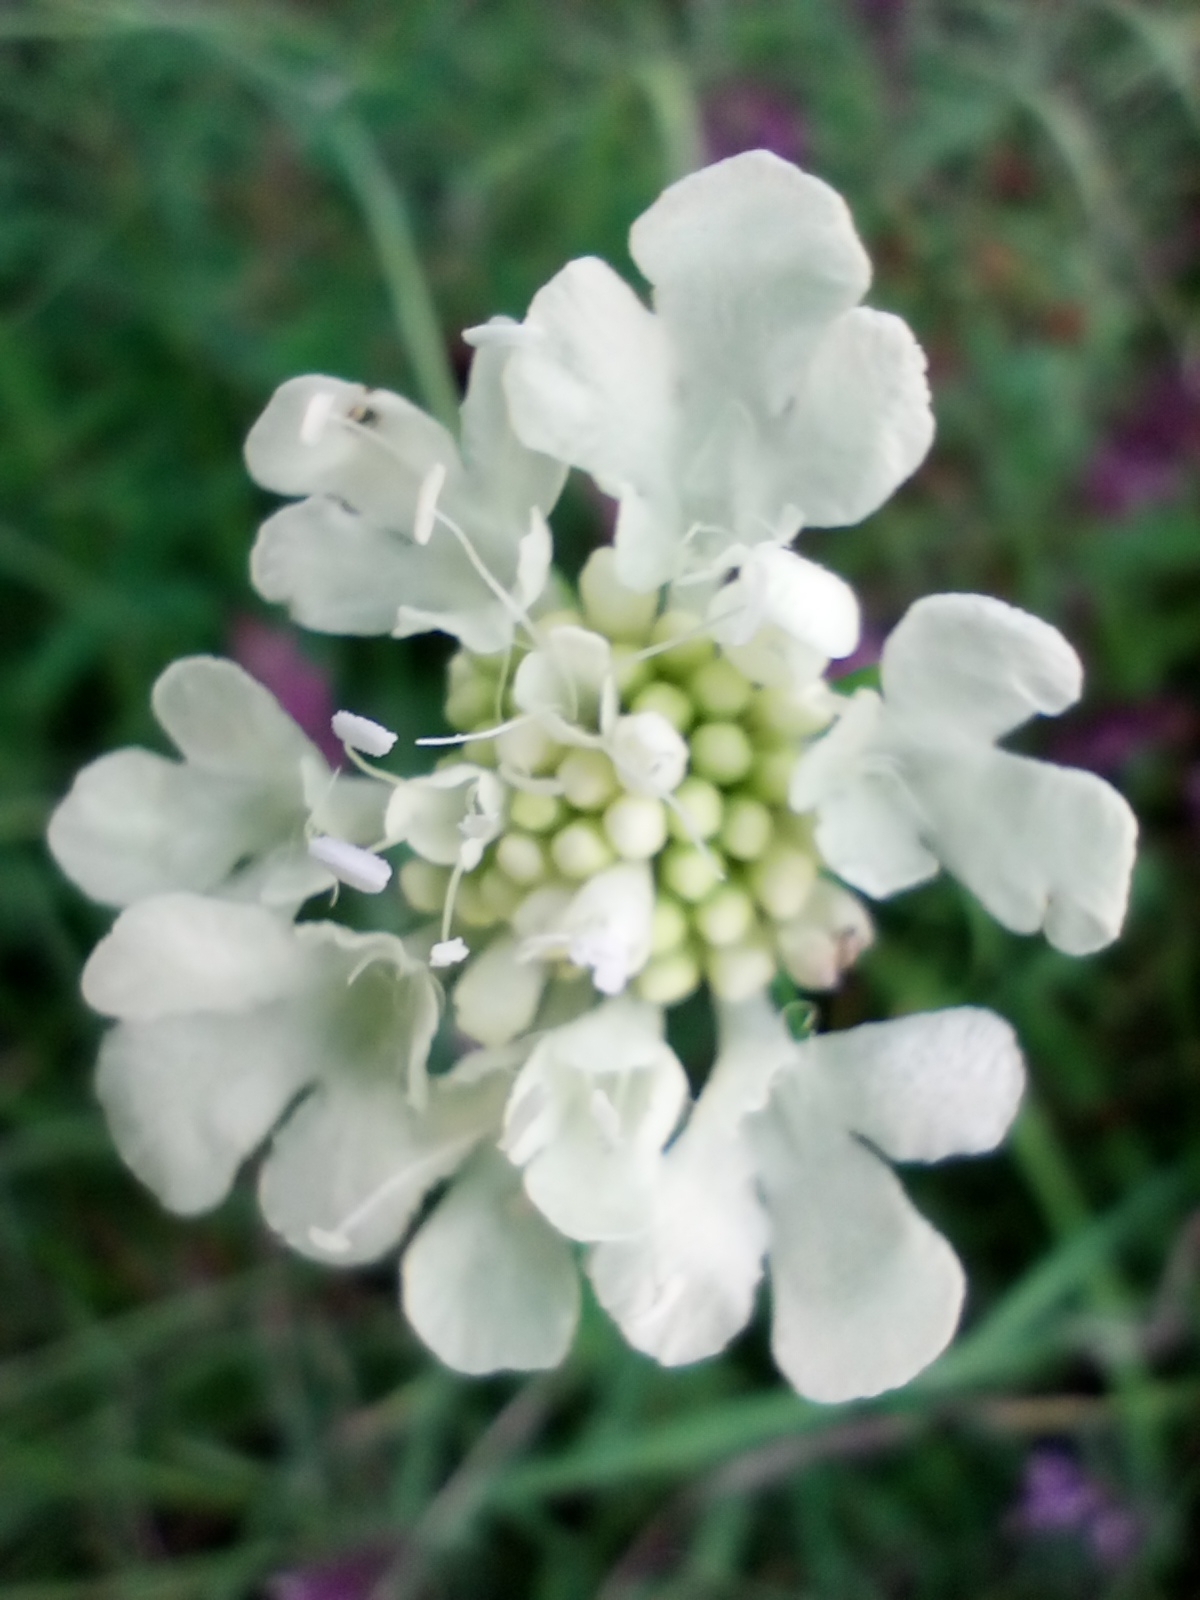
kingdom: Plantae
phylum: Tracheophyta
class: Magnoliopsida
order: Dipsacales
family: Caprifoliaceae
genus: Scabiosa
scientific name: Scabiosa ochroleuca
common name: Cream pincushions
